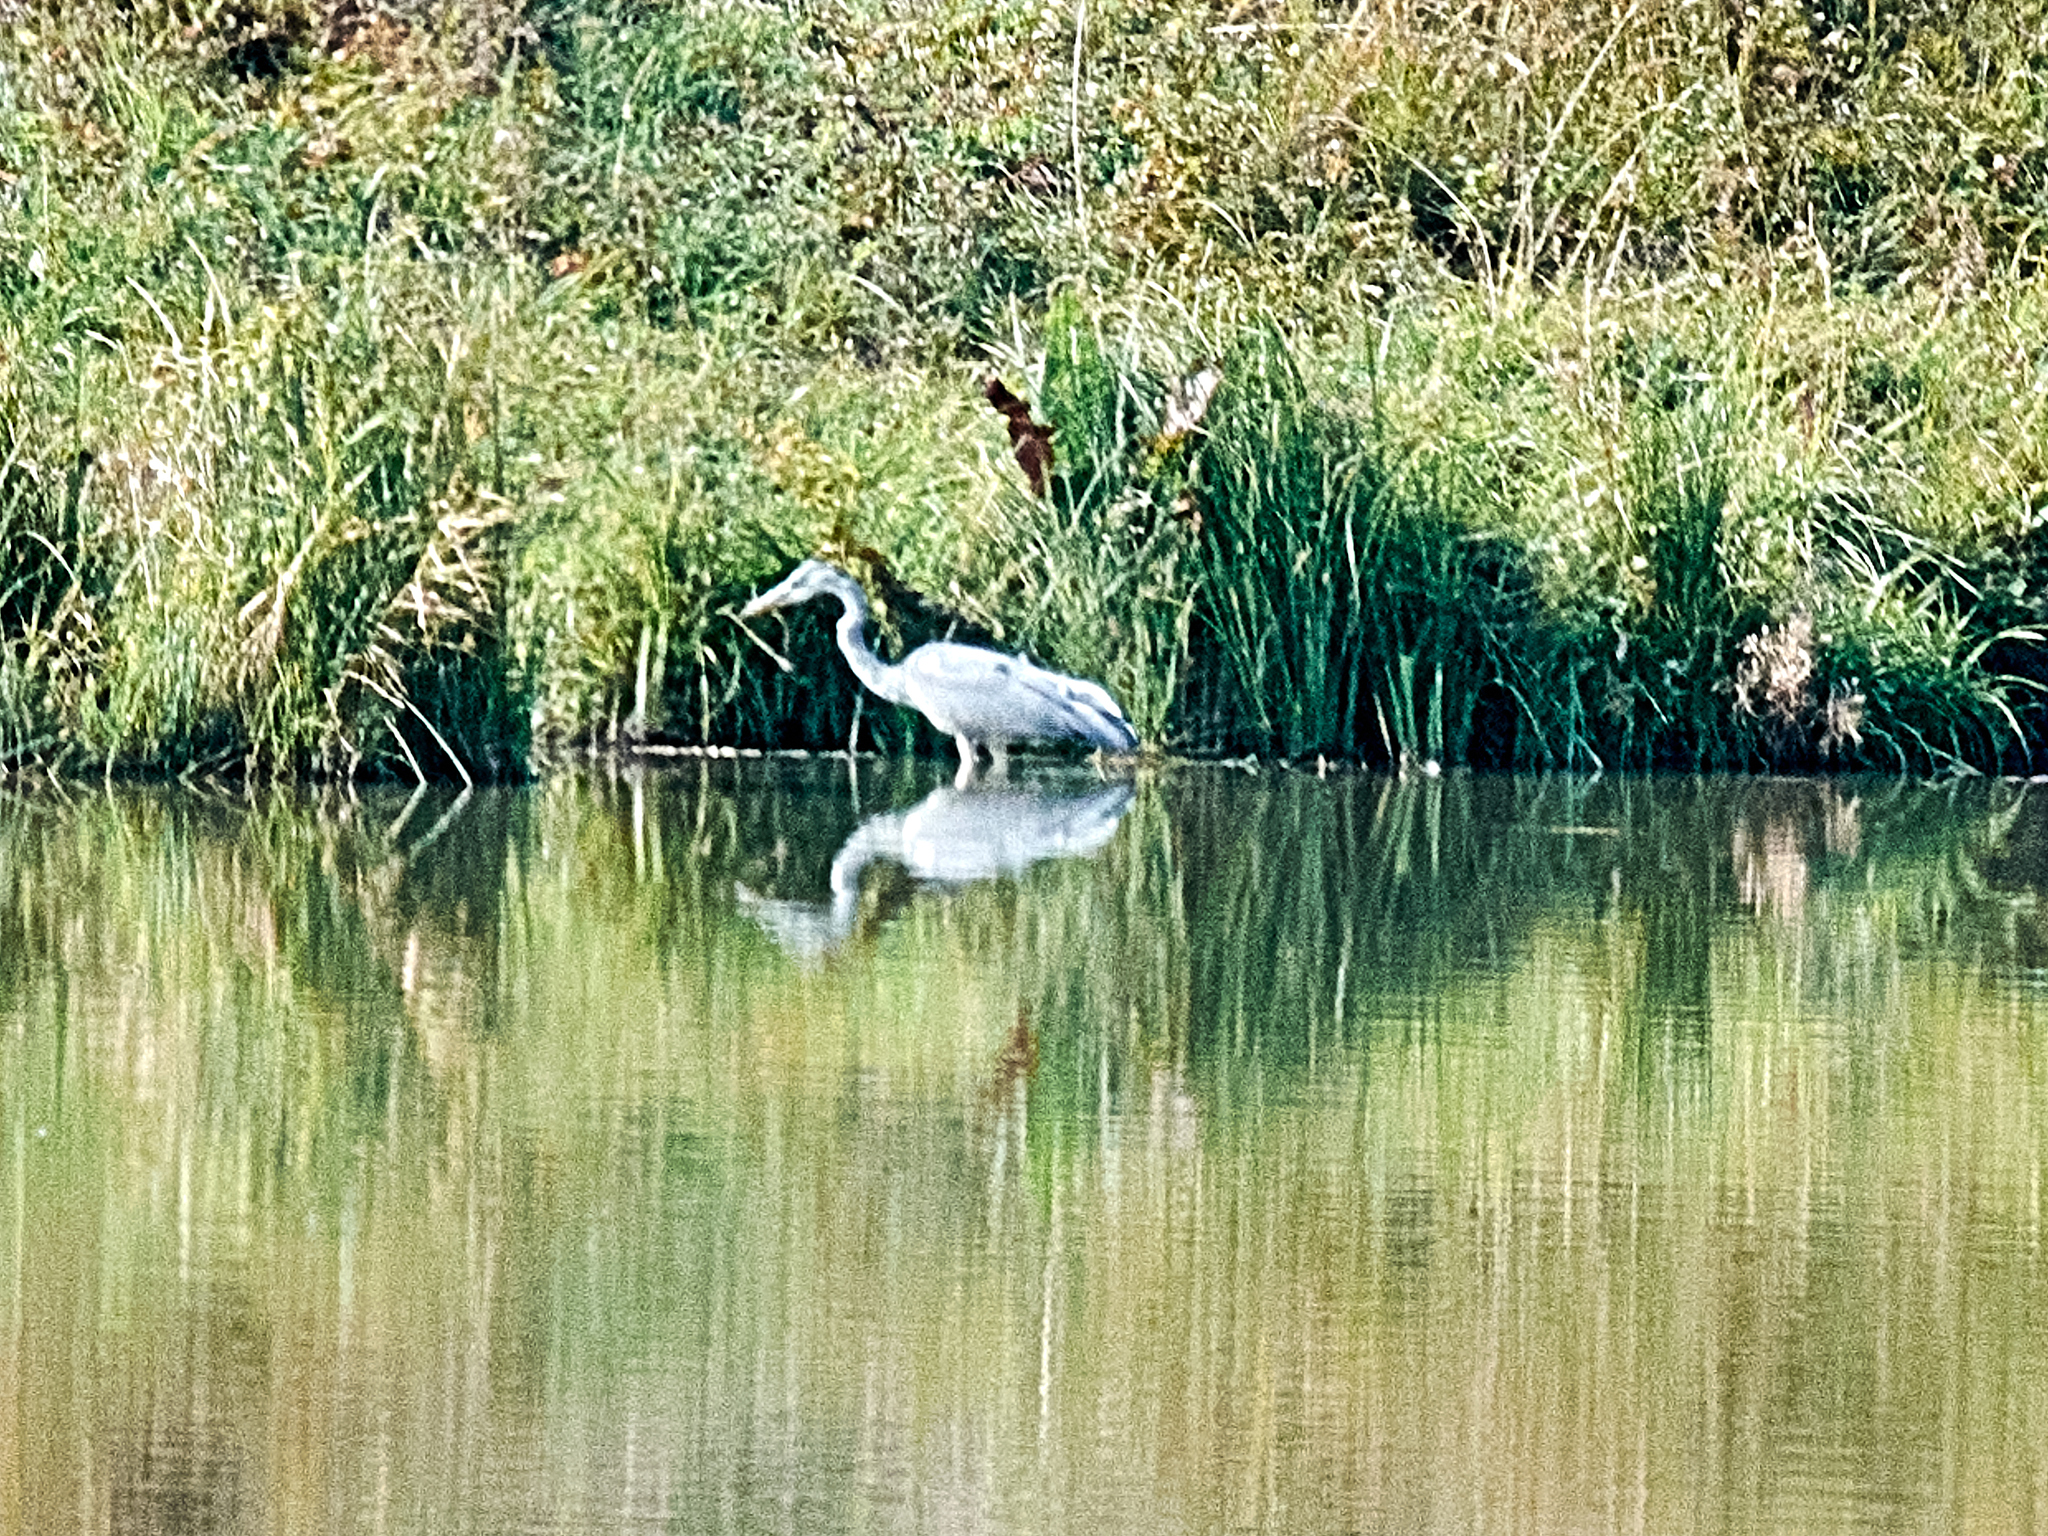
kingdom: Animalia
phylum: Chordata
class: Aves
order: Pelecaniformes
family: Ardeidae
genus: Ardea
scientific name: Ardea cinerea
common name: Grey heron
